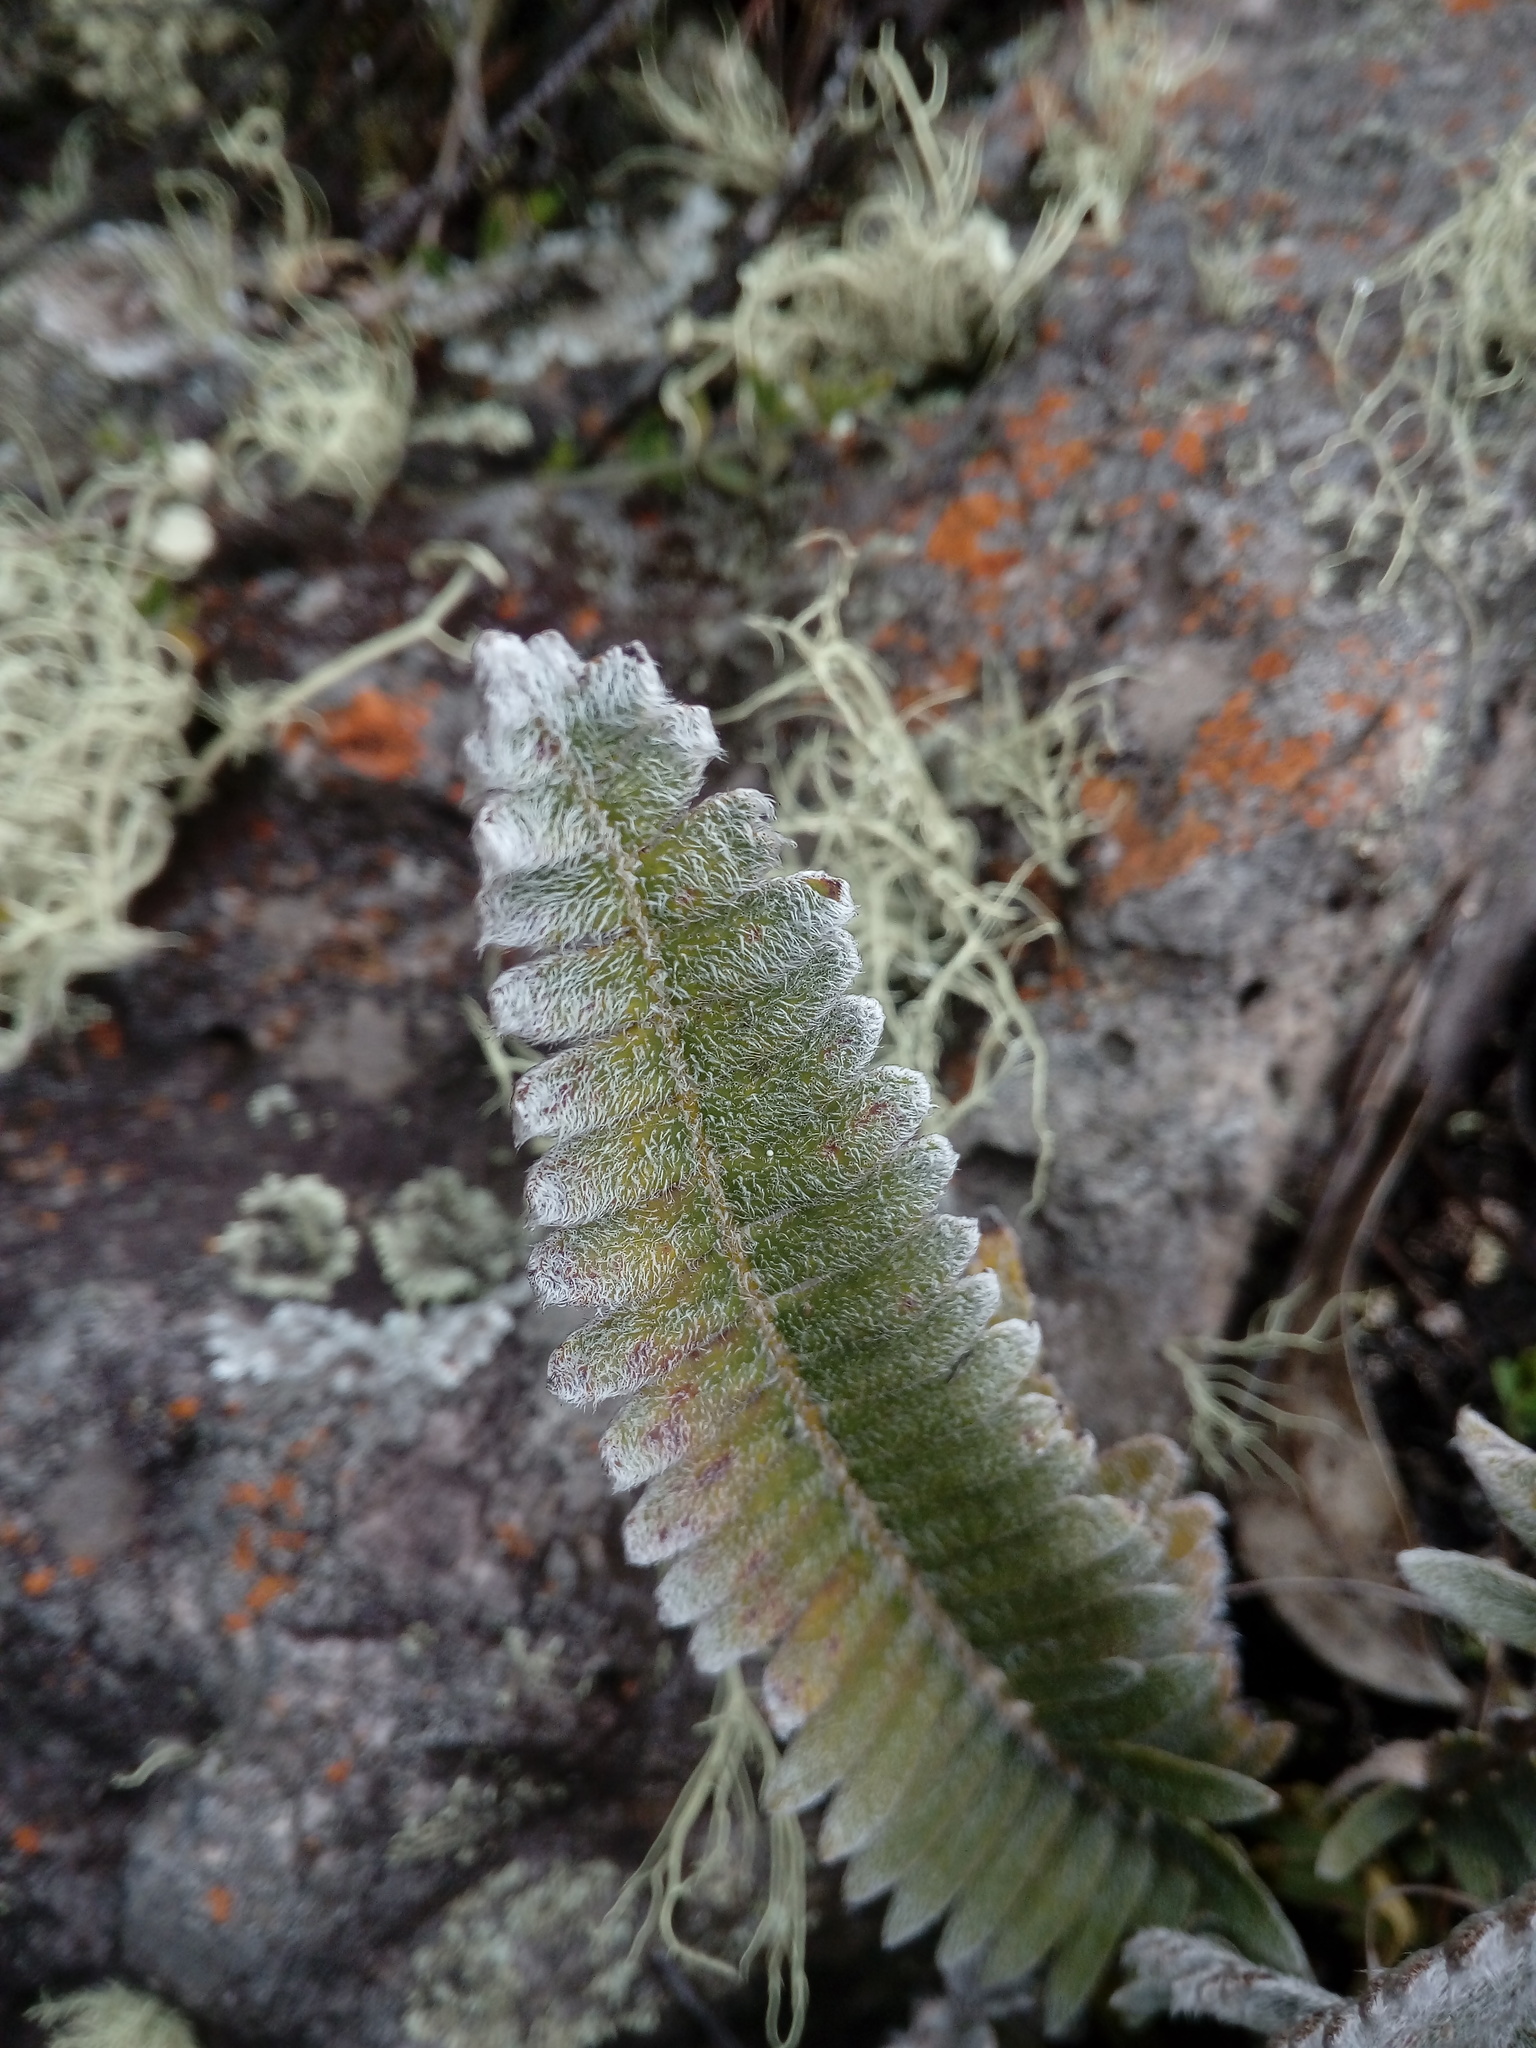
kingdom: Plantae
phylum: Tracheophyta
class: Polypodiopsida
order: Polypodiales
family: Polypodiaceae
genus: Pleopeltis
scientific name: Pleopeltis bombycina
